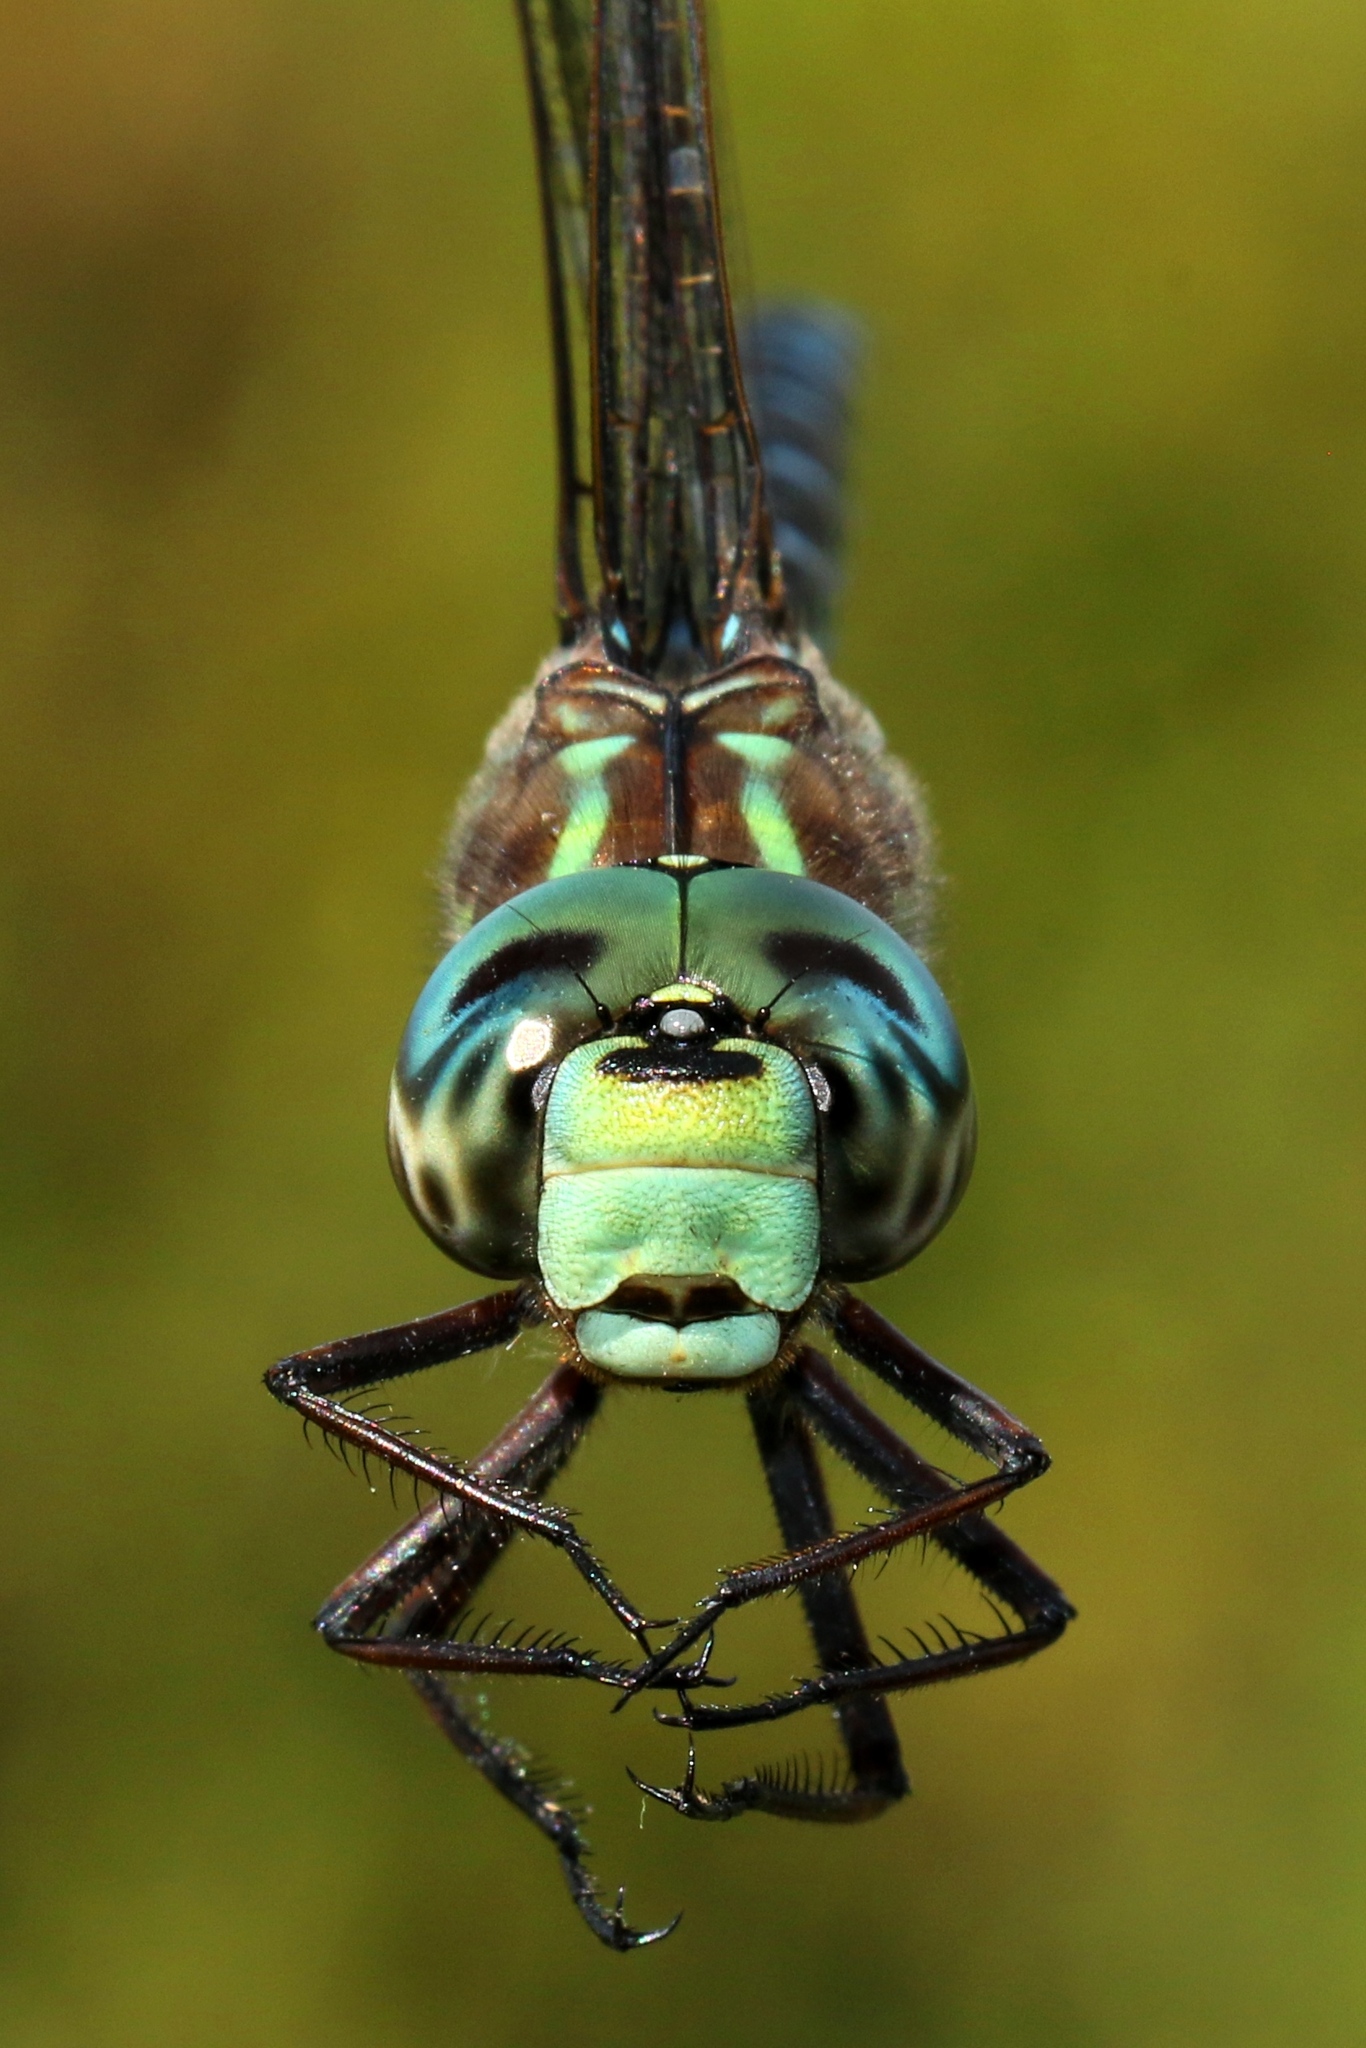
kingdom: Animalia
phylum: Arthropoda
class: Insecta
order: Odonata
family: Aeshnidae
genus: Aeshna
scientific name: Aeshna canadensis
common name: Canada darner
